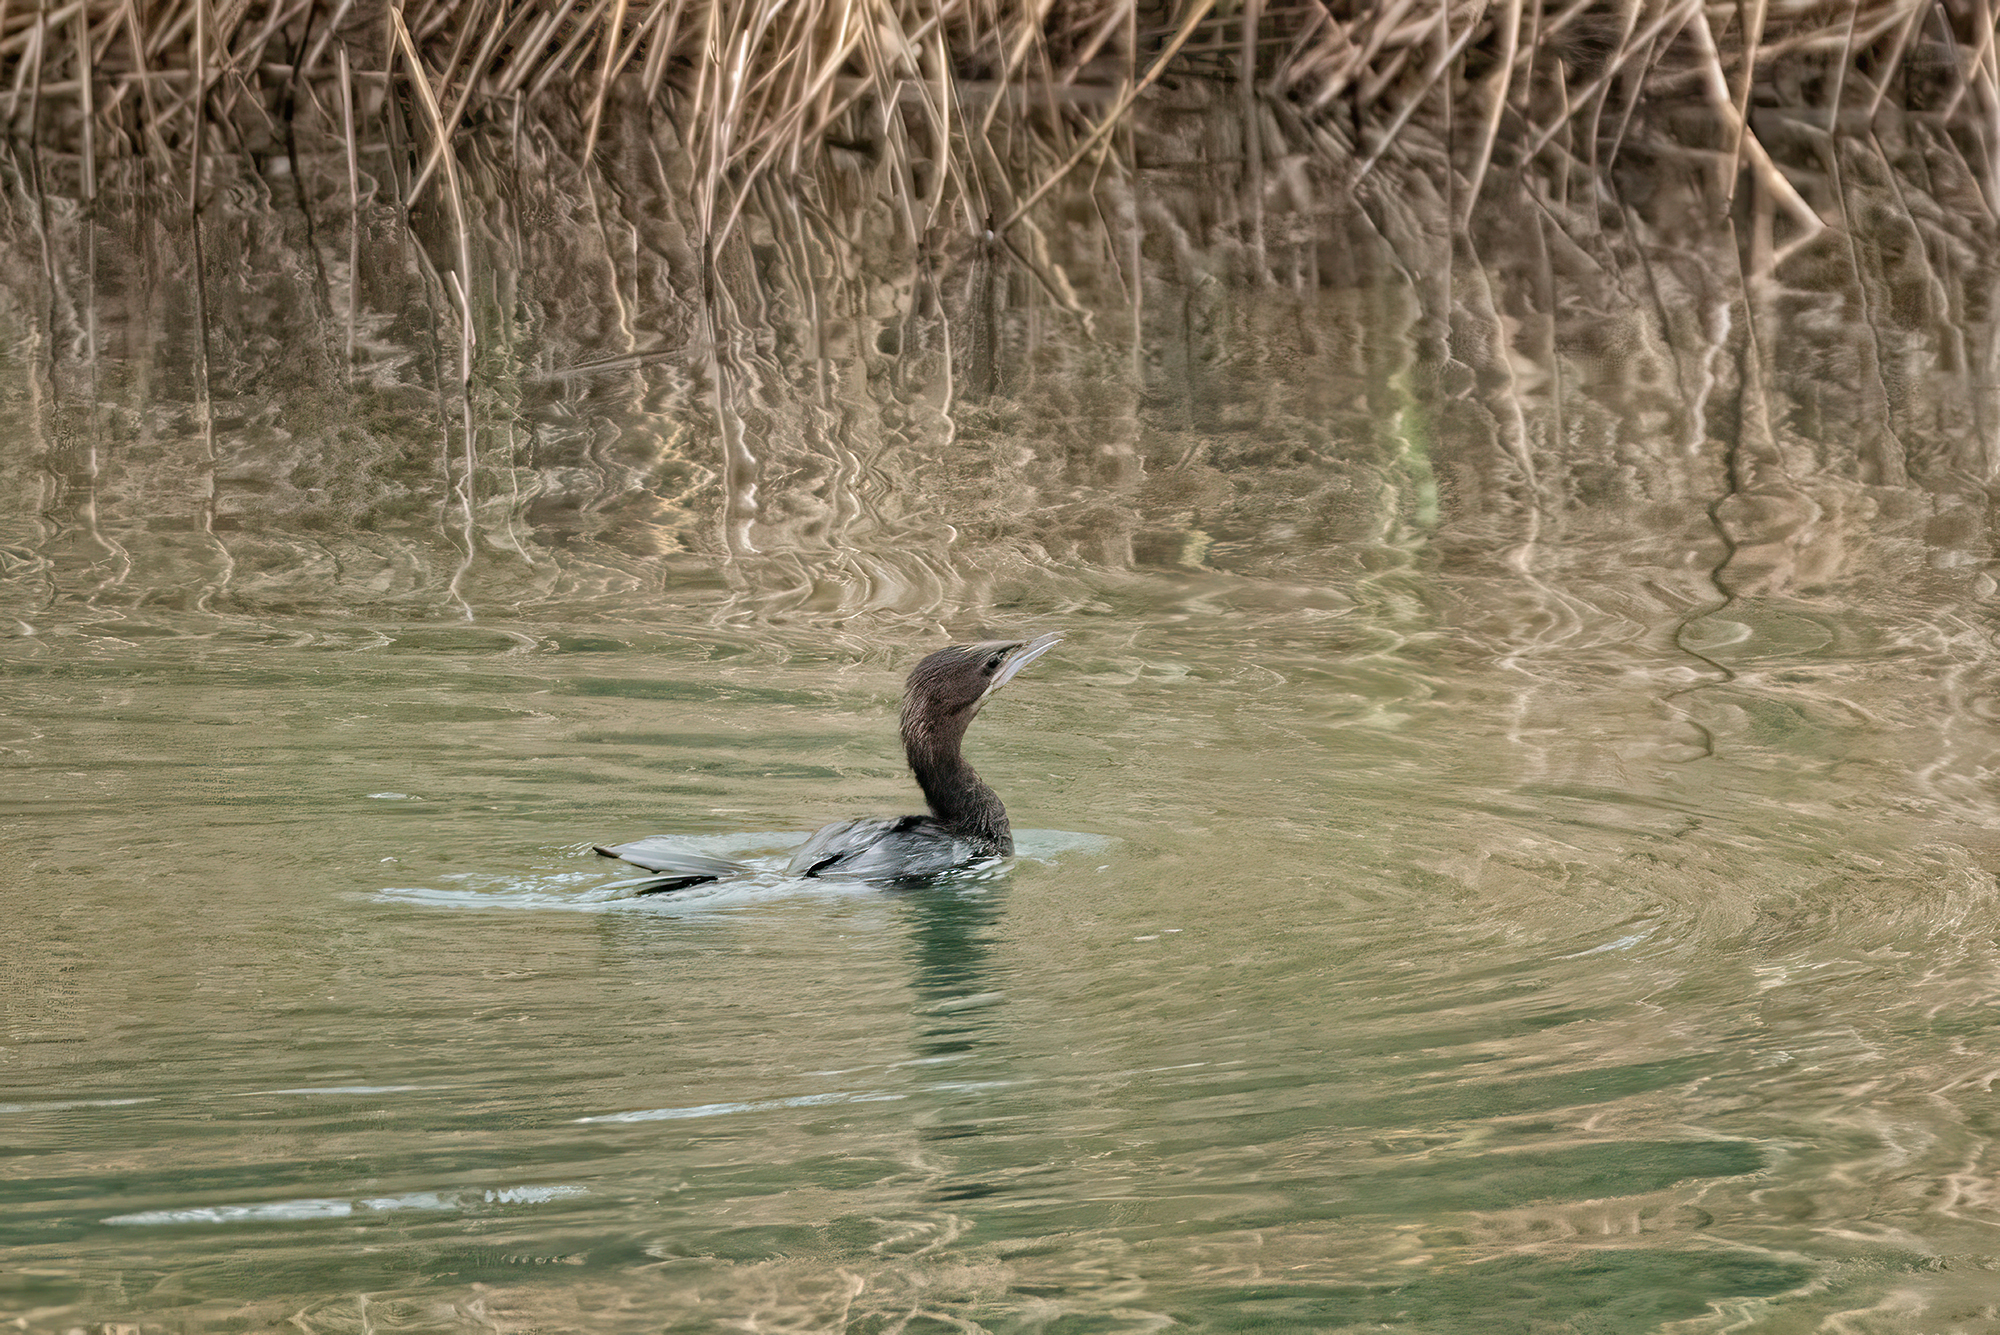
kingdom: Animalia
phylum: Chordata
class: Aves
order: Suliformes
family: Phalacrocoracidae
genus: Microcarbo
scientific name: Microcarbo pygmaeus
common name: Pygmy cormorant
